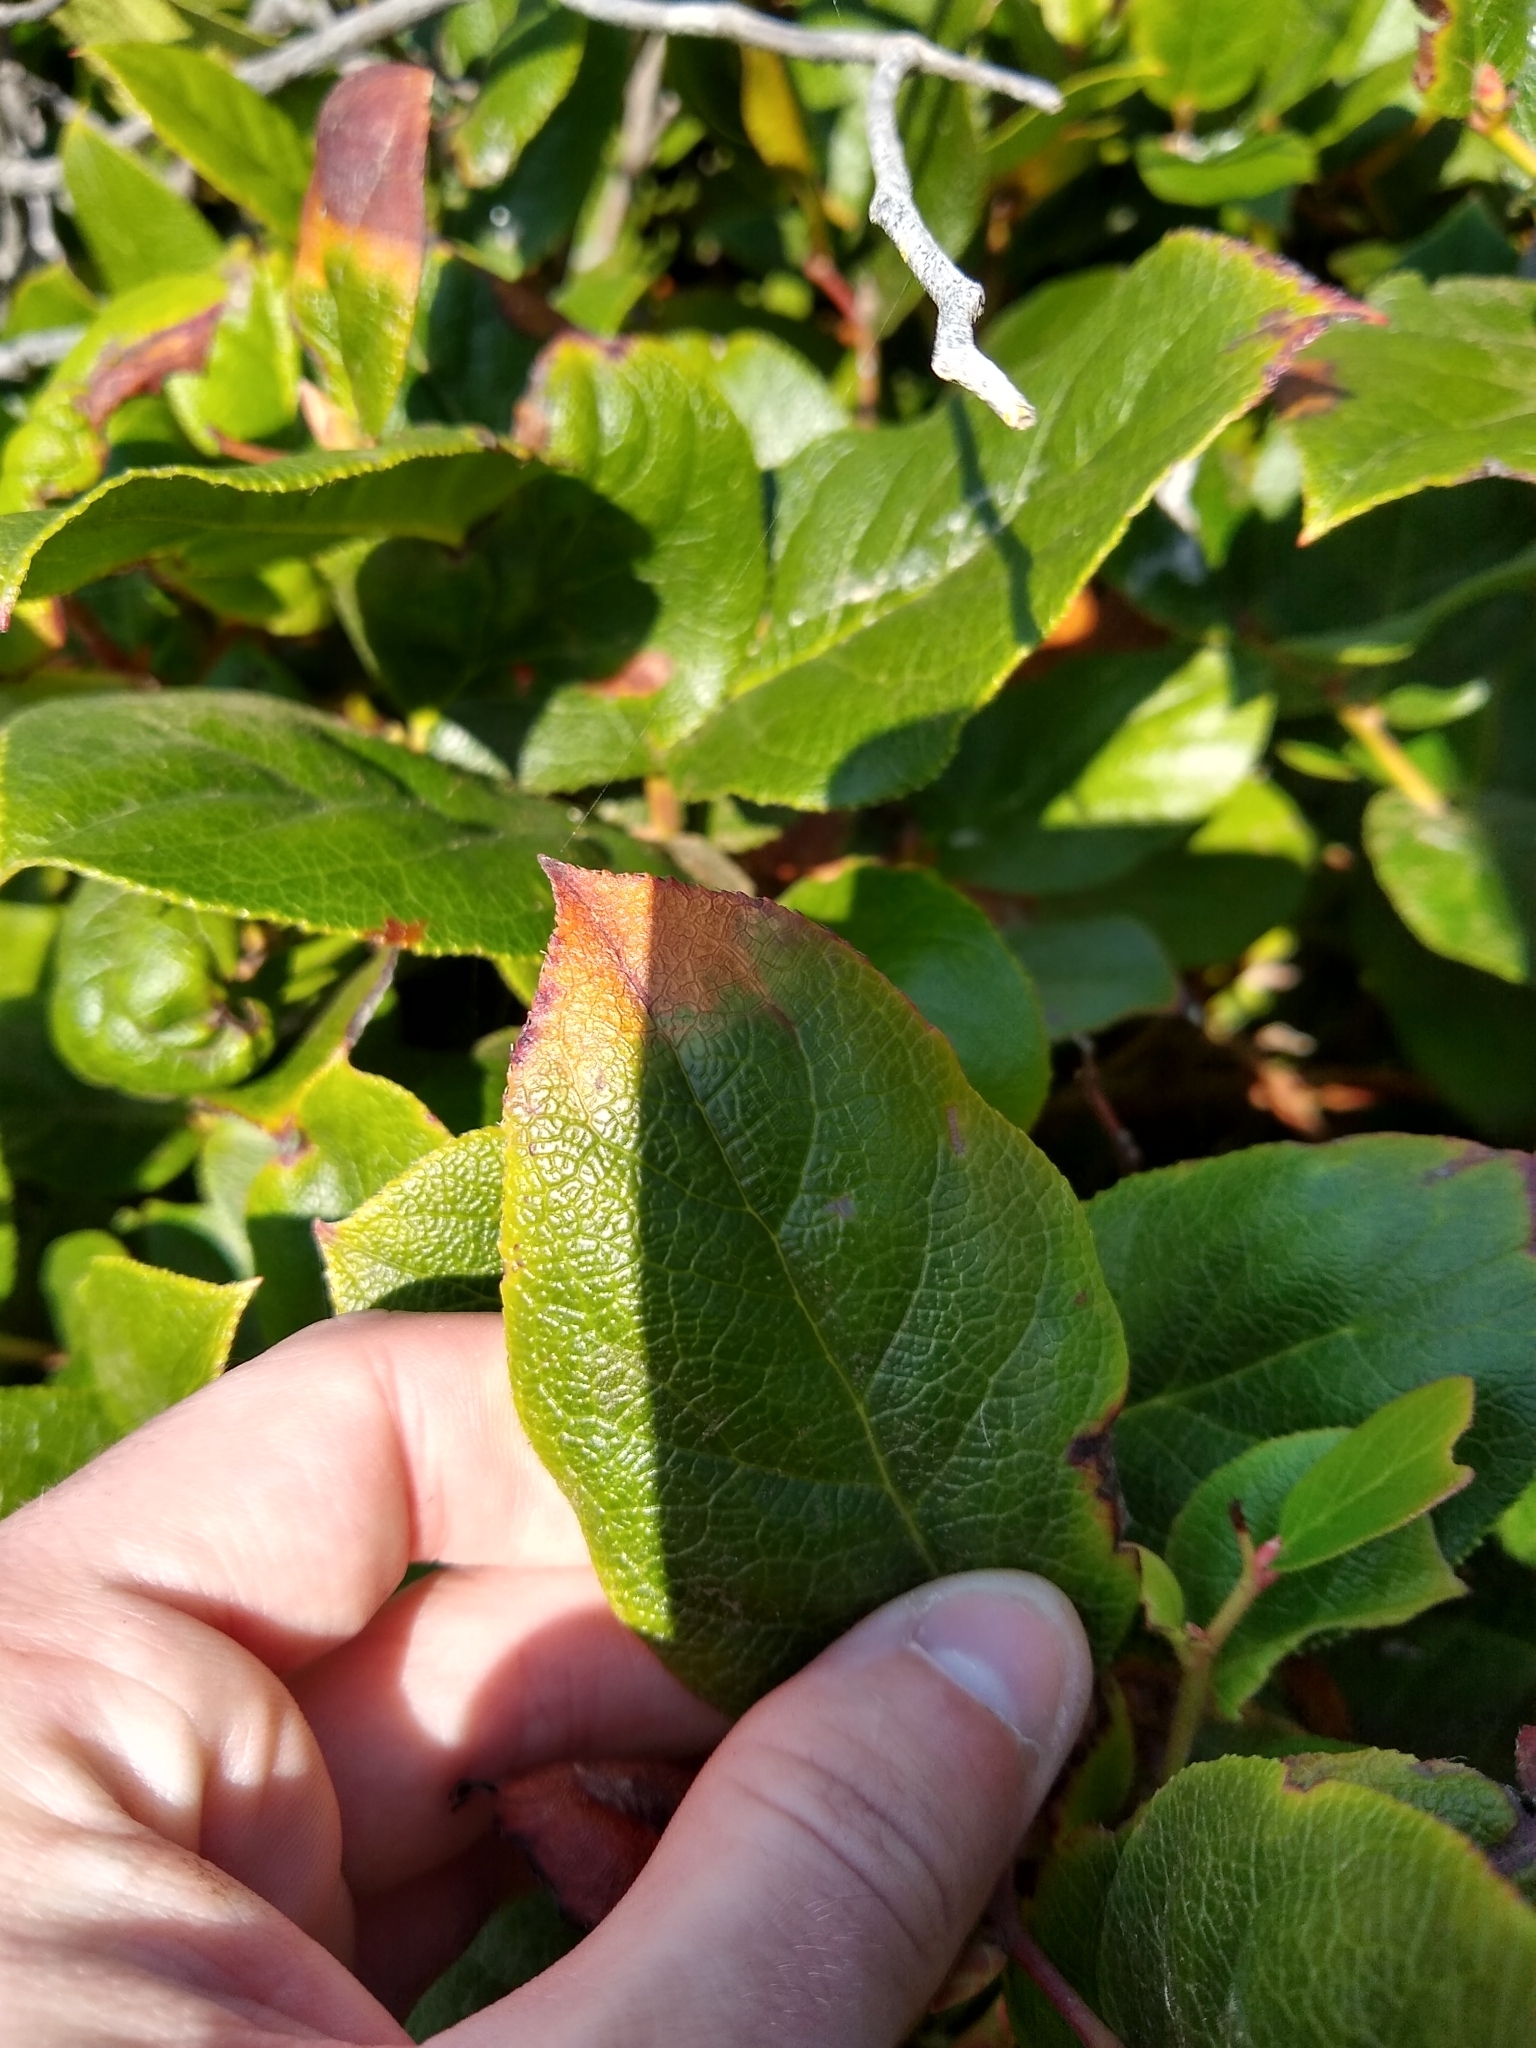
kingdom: Plantae
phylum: Tracheophyta
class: Magnoliopsida
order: Ericales
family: Ericaceae
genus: Gaultheria
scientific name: Gaultheria shallon
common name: Shallon
